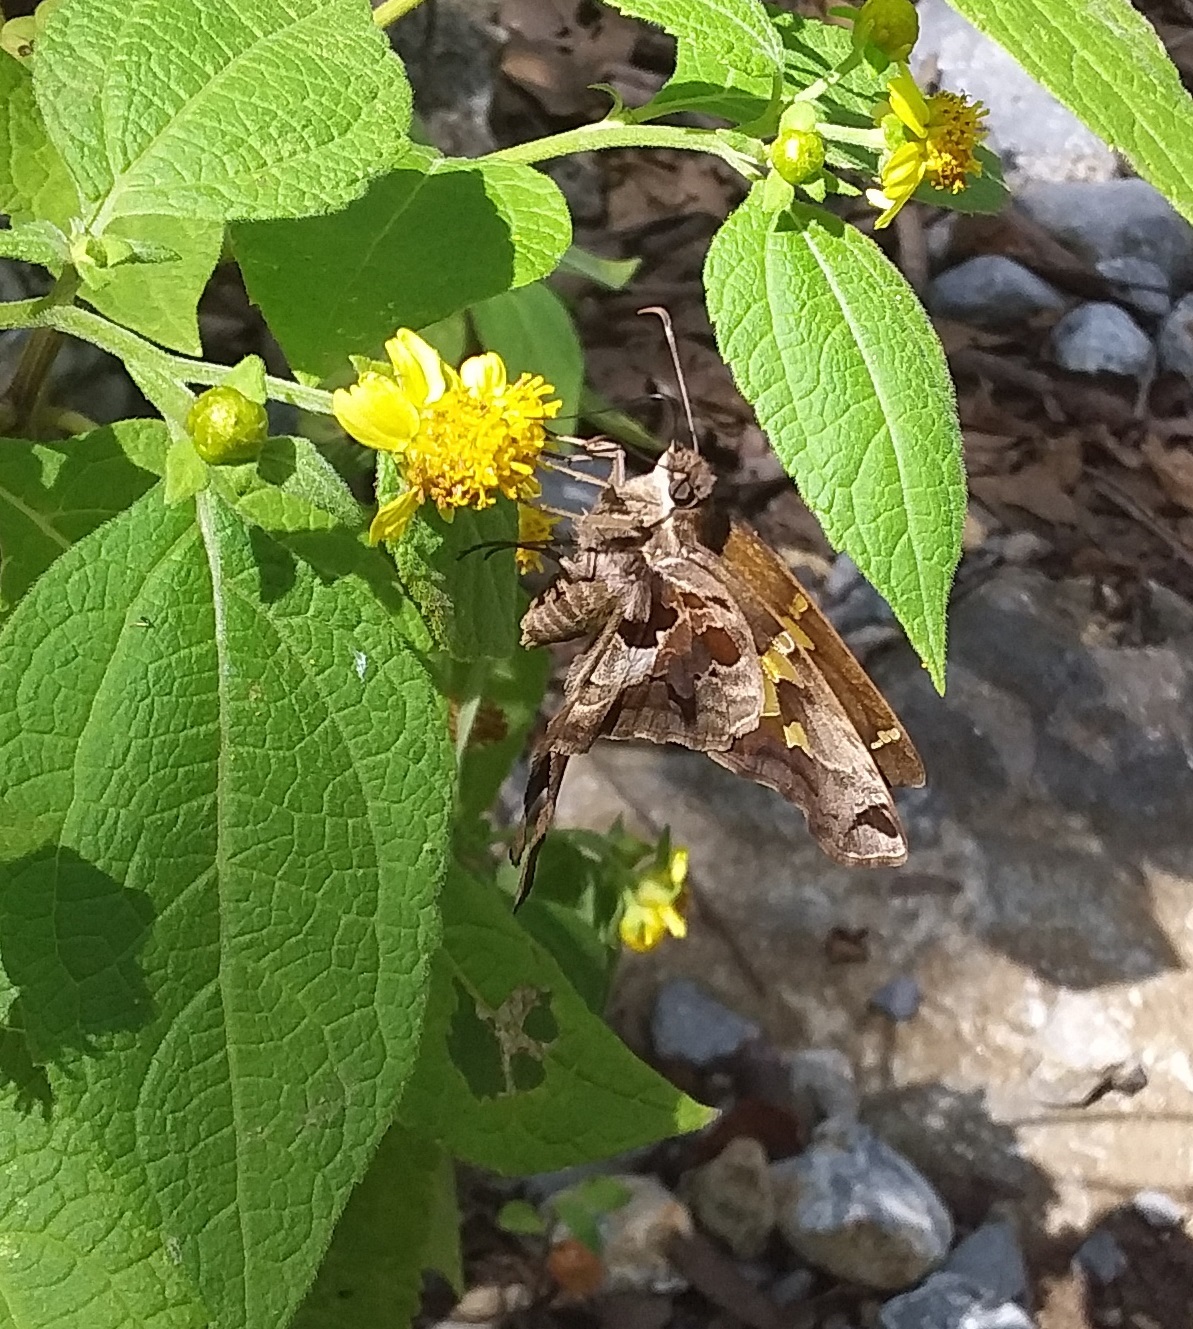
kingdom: Animalia
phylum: Arthropoda
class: Insecta
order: Lepidoptera
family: Hesperiidae
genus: Chioides
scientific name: Chioides zilpa
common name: Zilpa longtail
